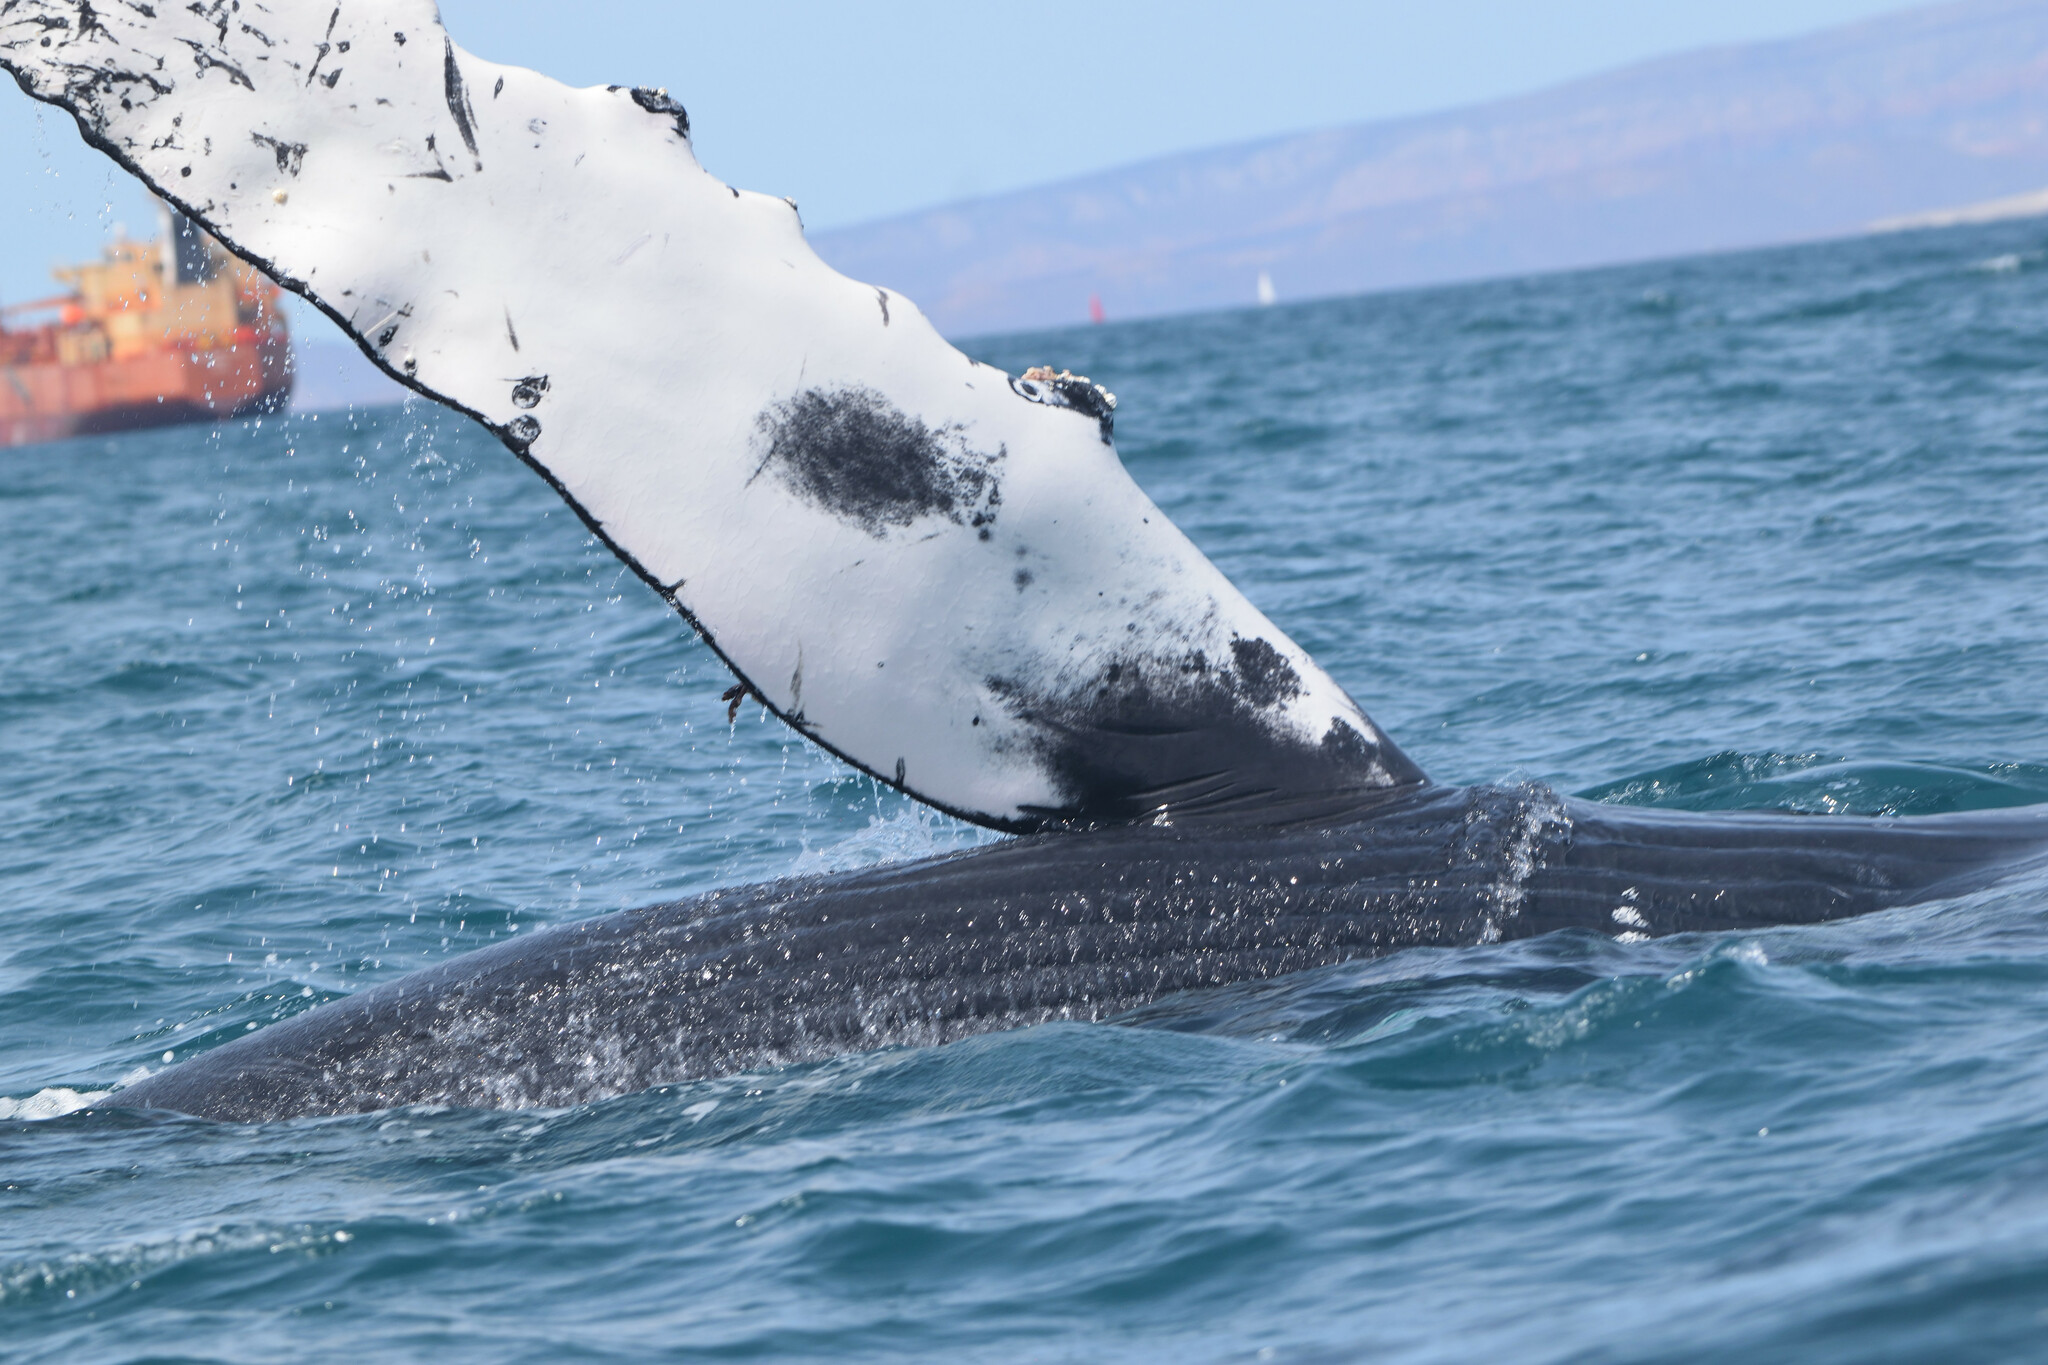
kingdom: Animalia
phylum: Chordata
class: Mammalia
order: Cetacea
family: Balaenopteridae
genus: Megaptera
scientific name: Megaptera novaeangliae
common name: Humpback whale
